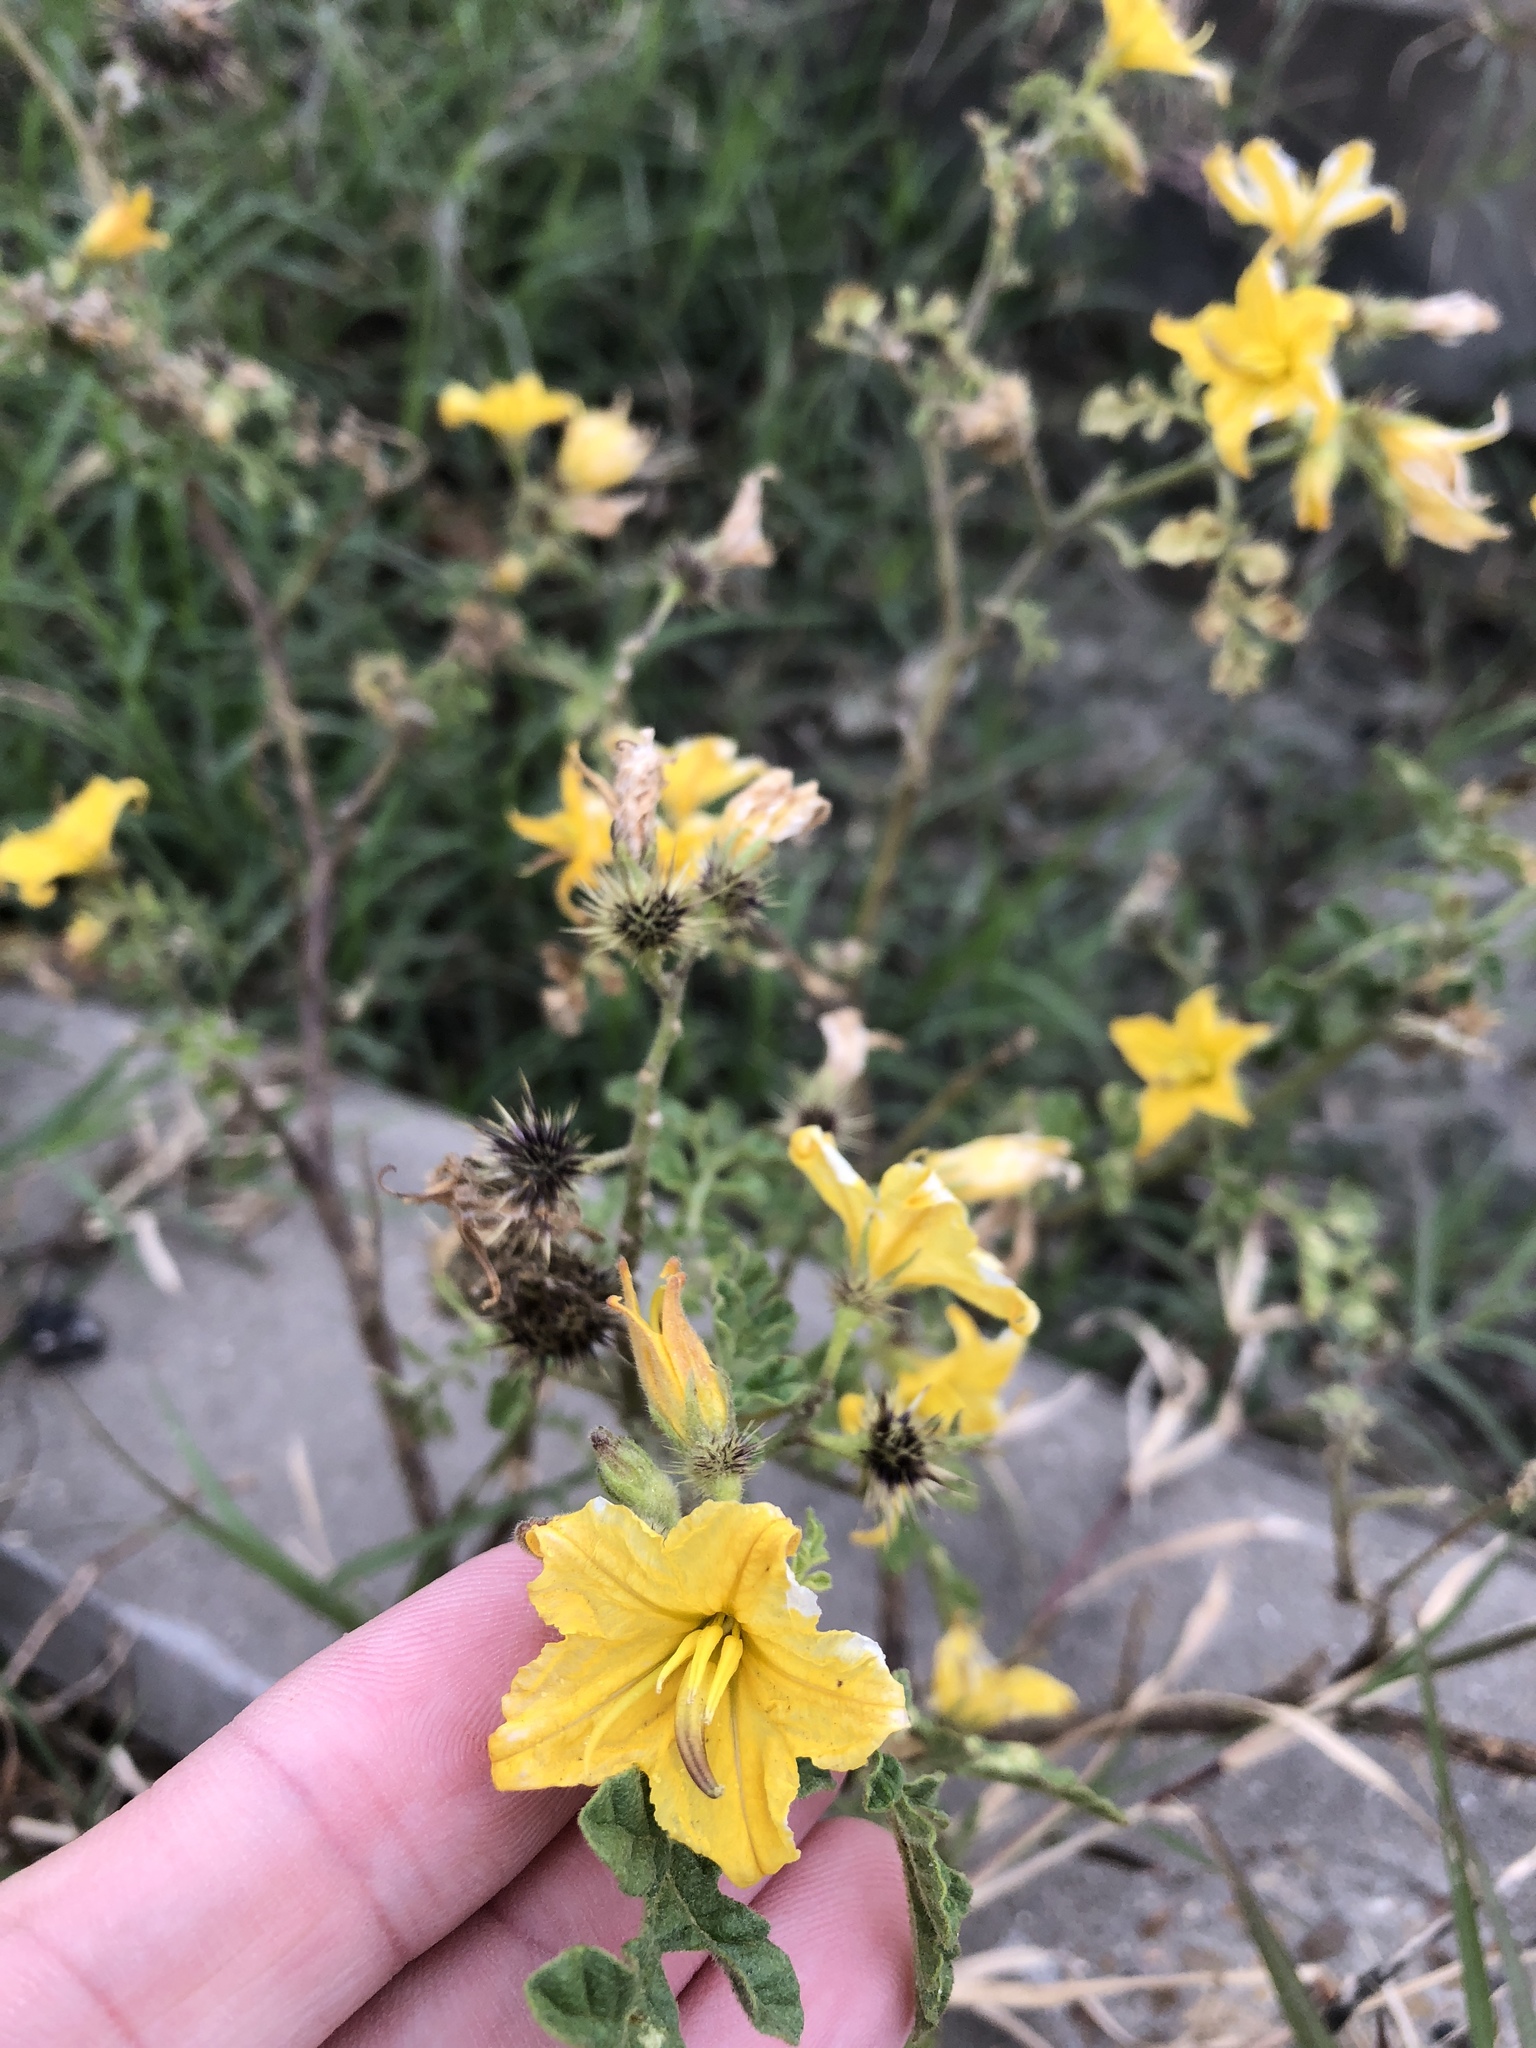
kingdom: Plantae
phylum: Tracheophyta
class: Magnoliopsida
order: Solanales
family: Solanaceae
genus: Solanum
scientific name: Solanum angustifolium
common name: Buffalobur nightshade
